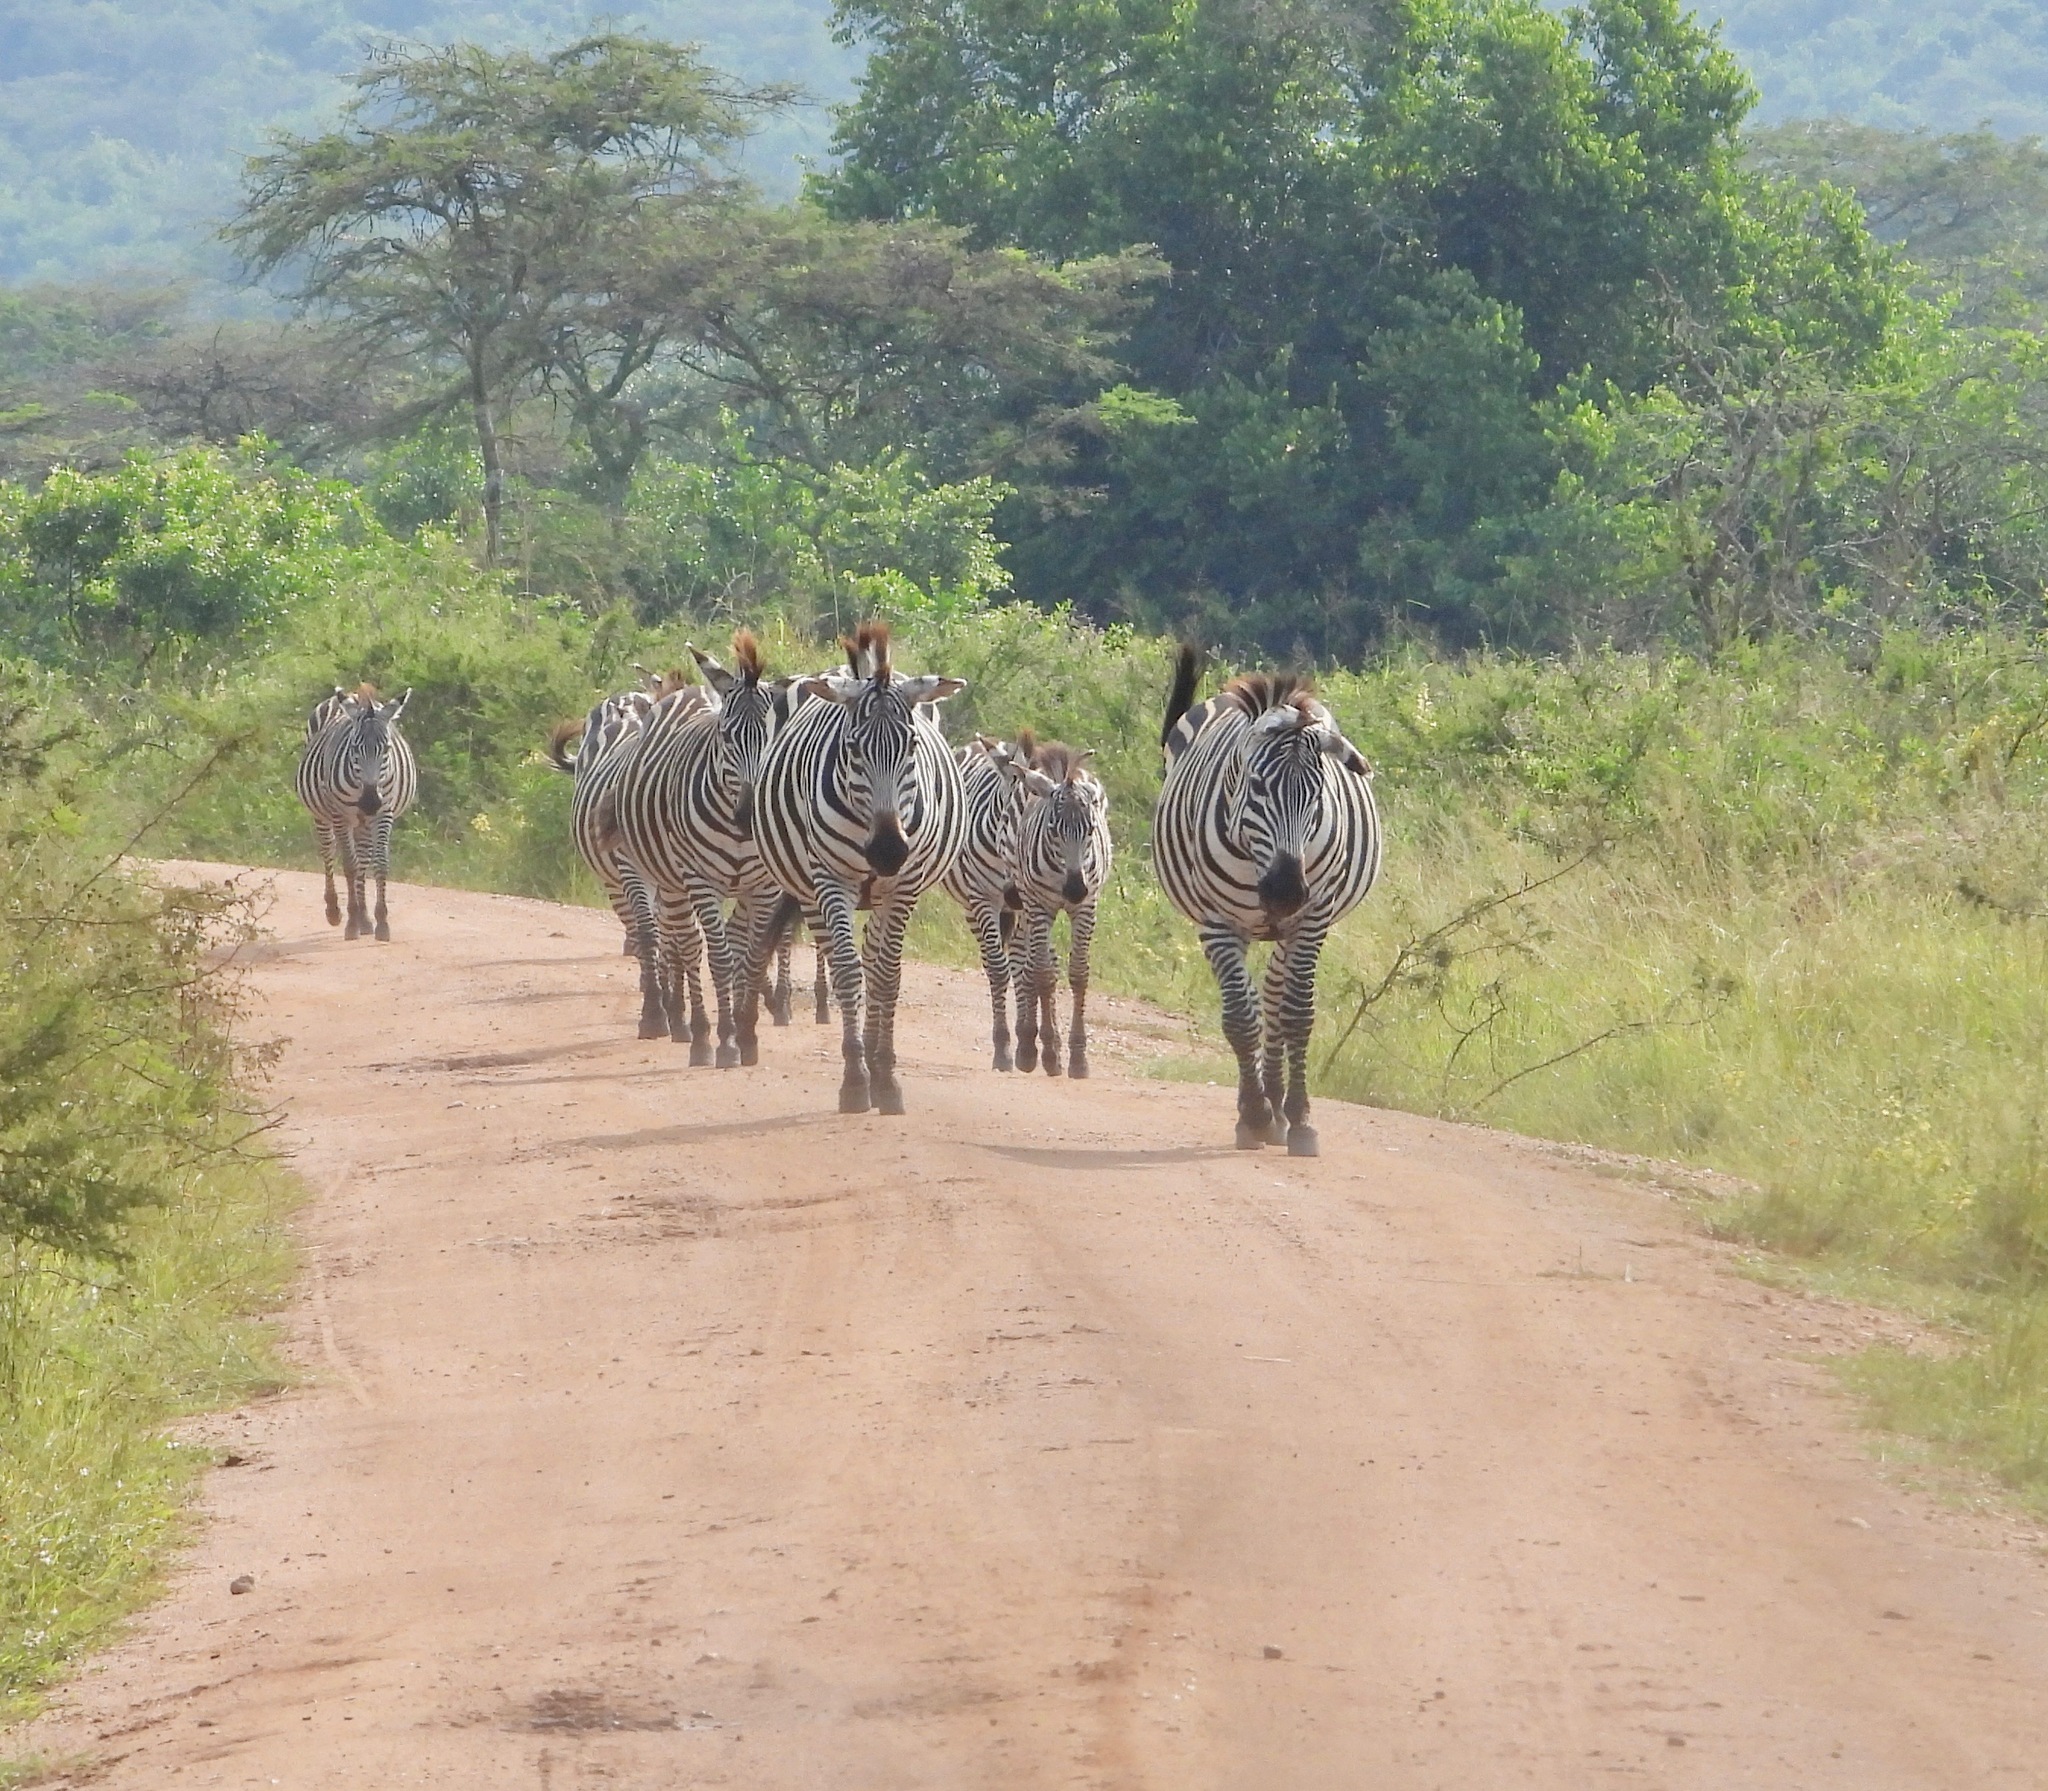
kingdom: Animalia
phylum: Chordata
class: Mammalia
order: Perissodactyla
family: Equidae
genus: Equus
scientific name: Equus quagga
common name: Plains zebra
